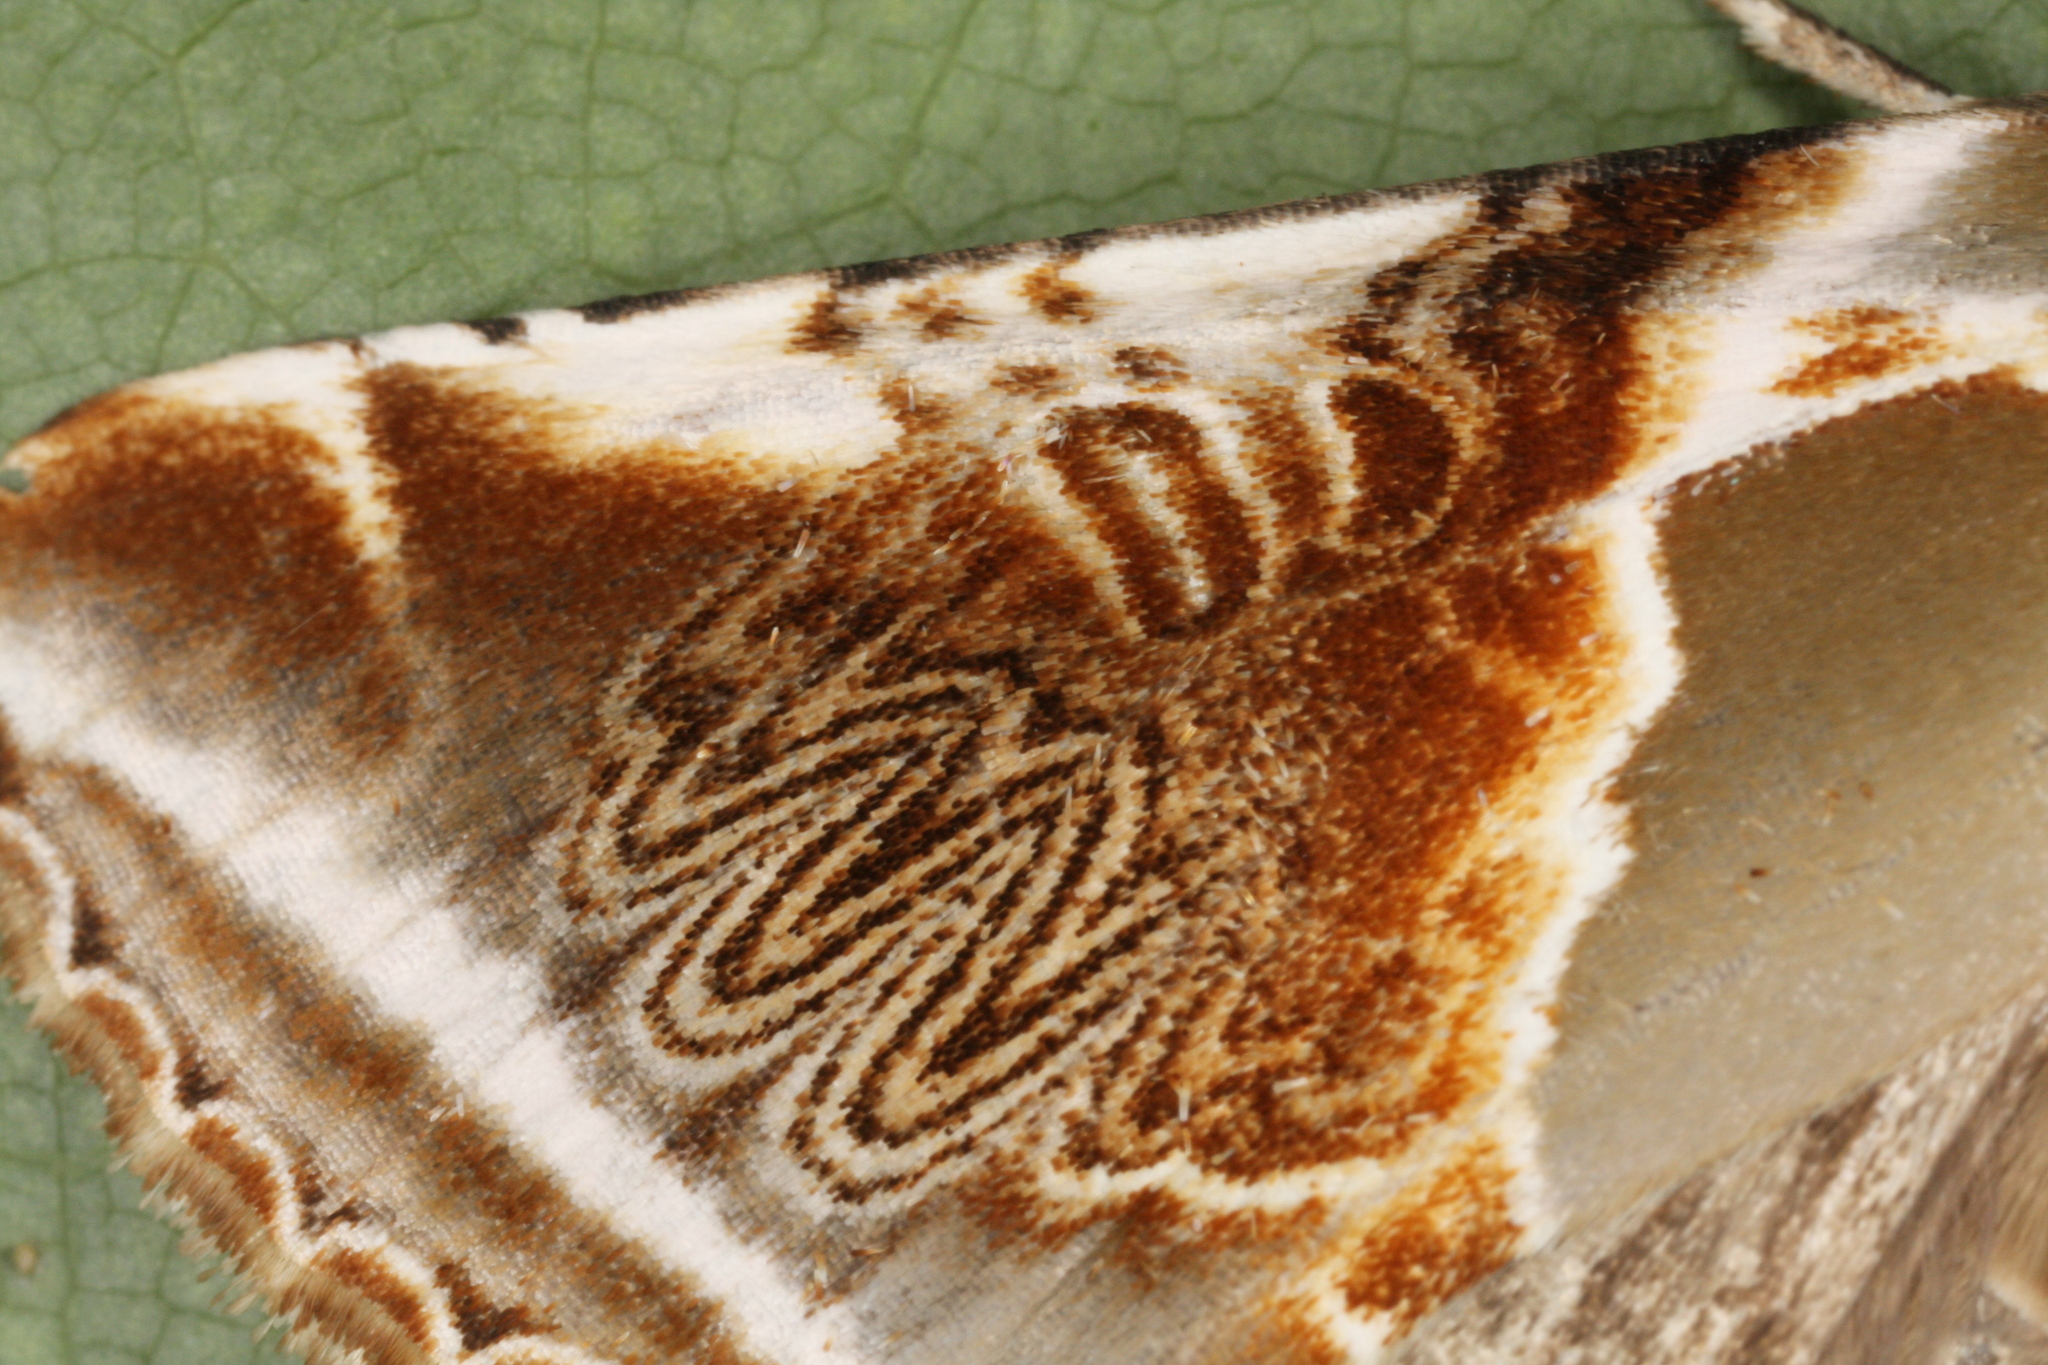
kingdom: Animalia
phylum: Arthropoda
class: Insecta
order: Lepidoptera
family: Drepanidae
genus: Habrosyne
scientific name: Habrosyne pyritoides
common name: Buff arches
